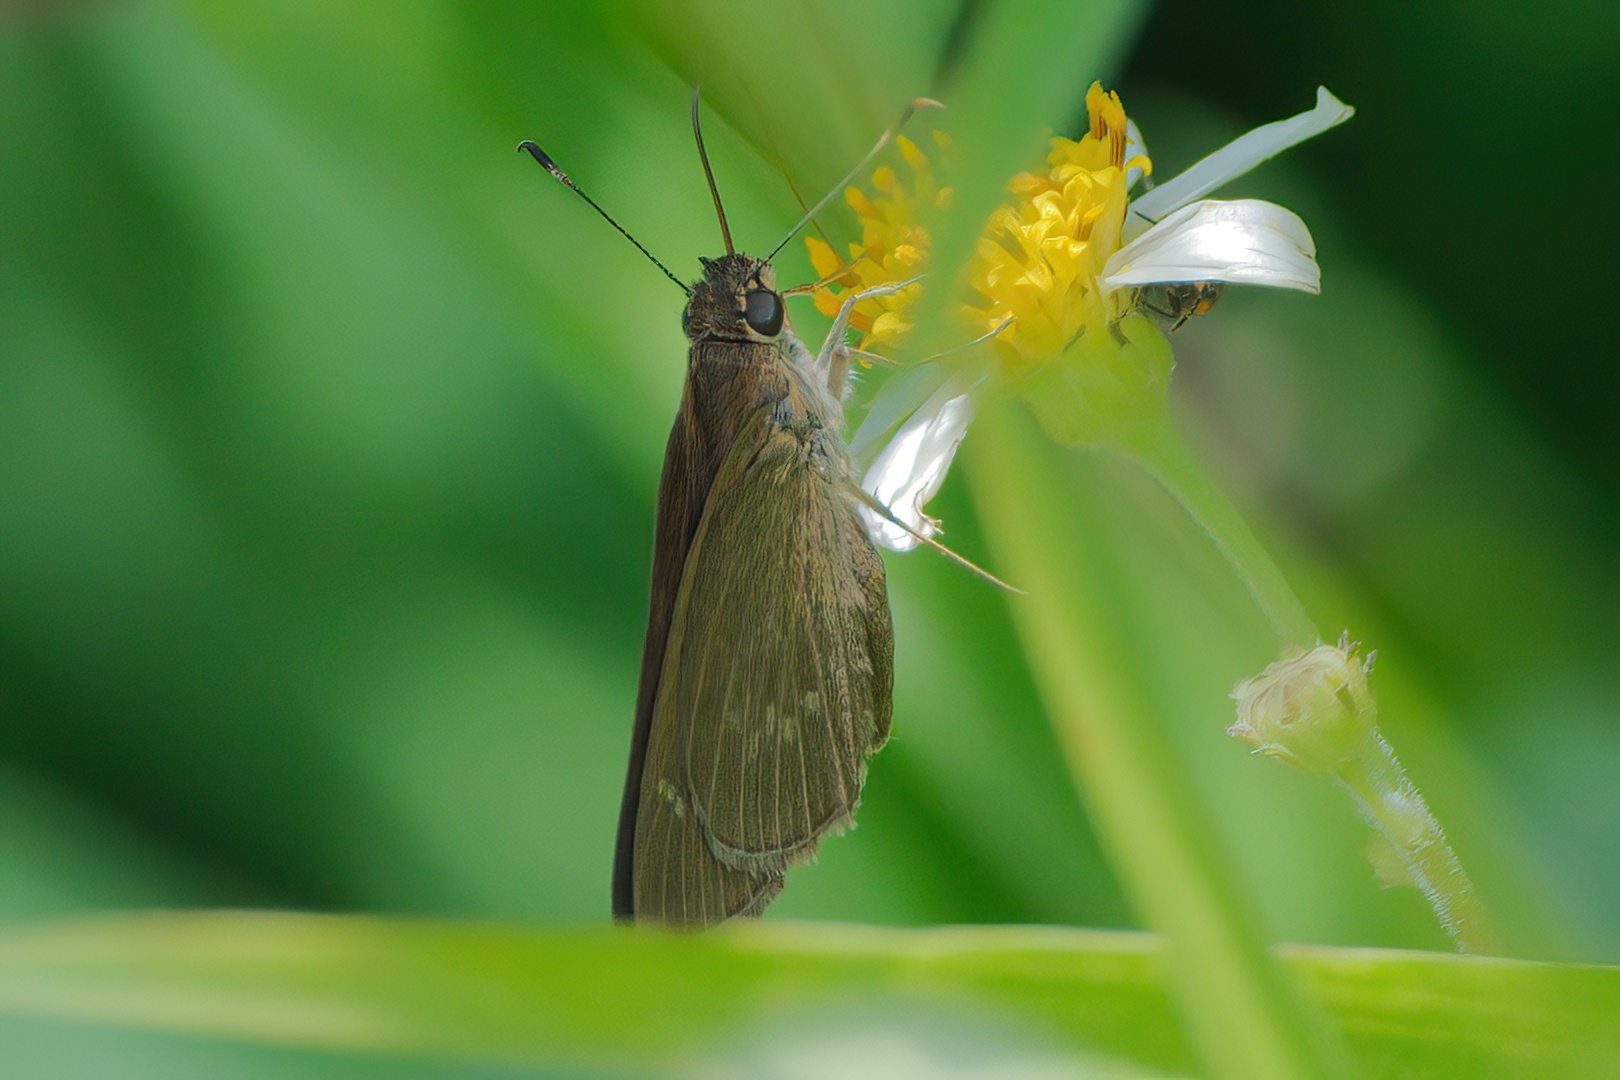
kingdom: Animalia
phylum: Arthropoda
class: Insecta
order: Lepidoptera
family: Hesperiidae
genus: Cymaenes
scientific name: Cymaenes tripunctus
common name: Dingy dotted skipper
